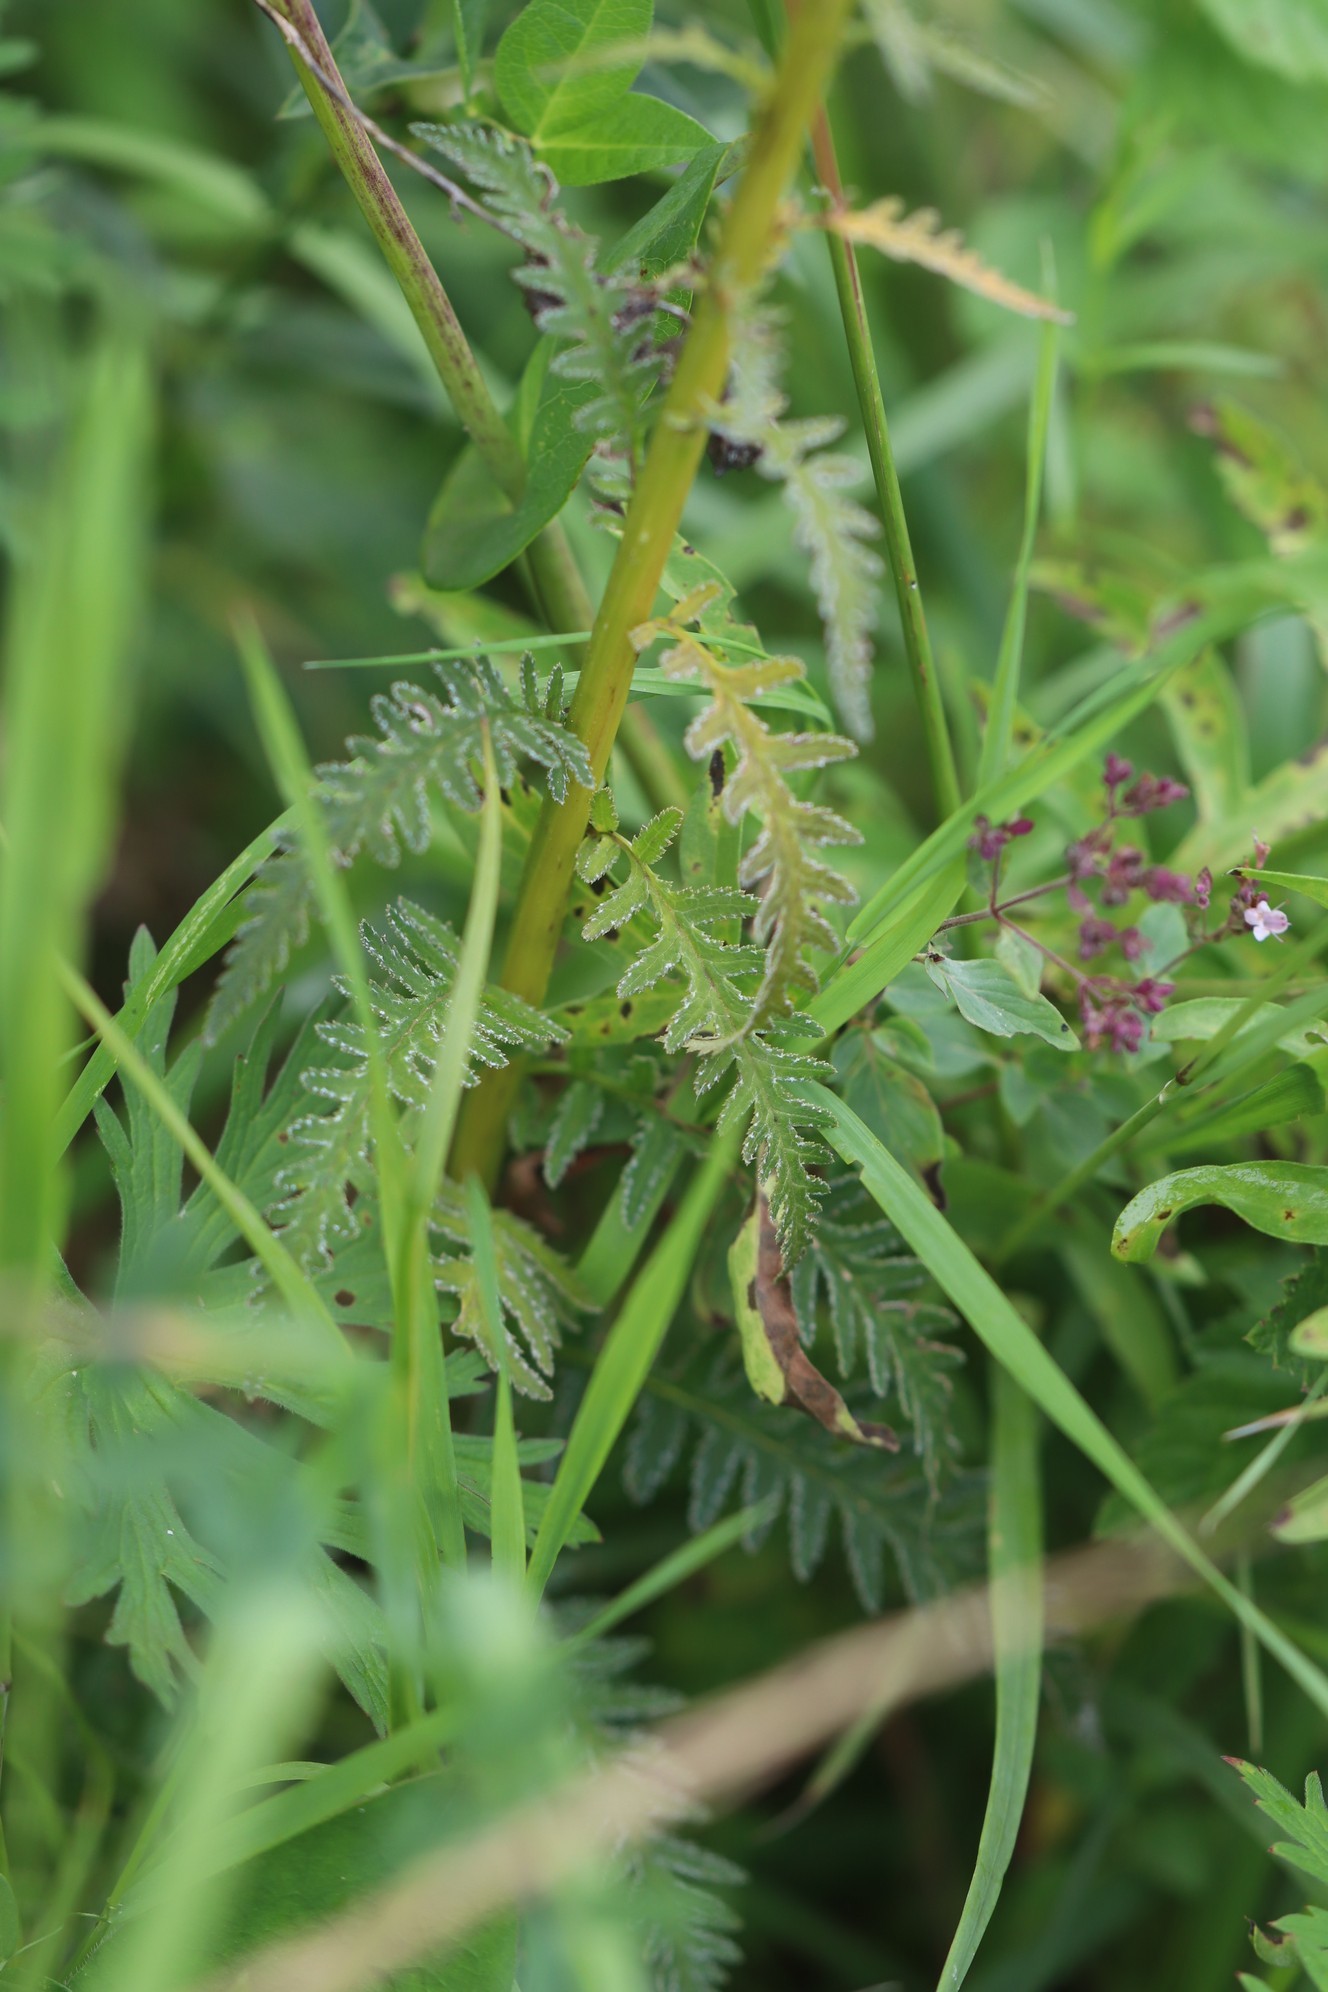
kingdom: Plantae
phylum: Tracheophyta
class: Magnoliopsida
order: Lamiales
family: Orobanchaceae
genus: Pedicularis
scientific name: Pedicularis incarnata
